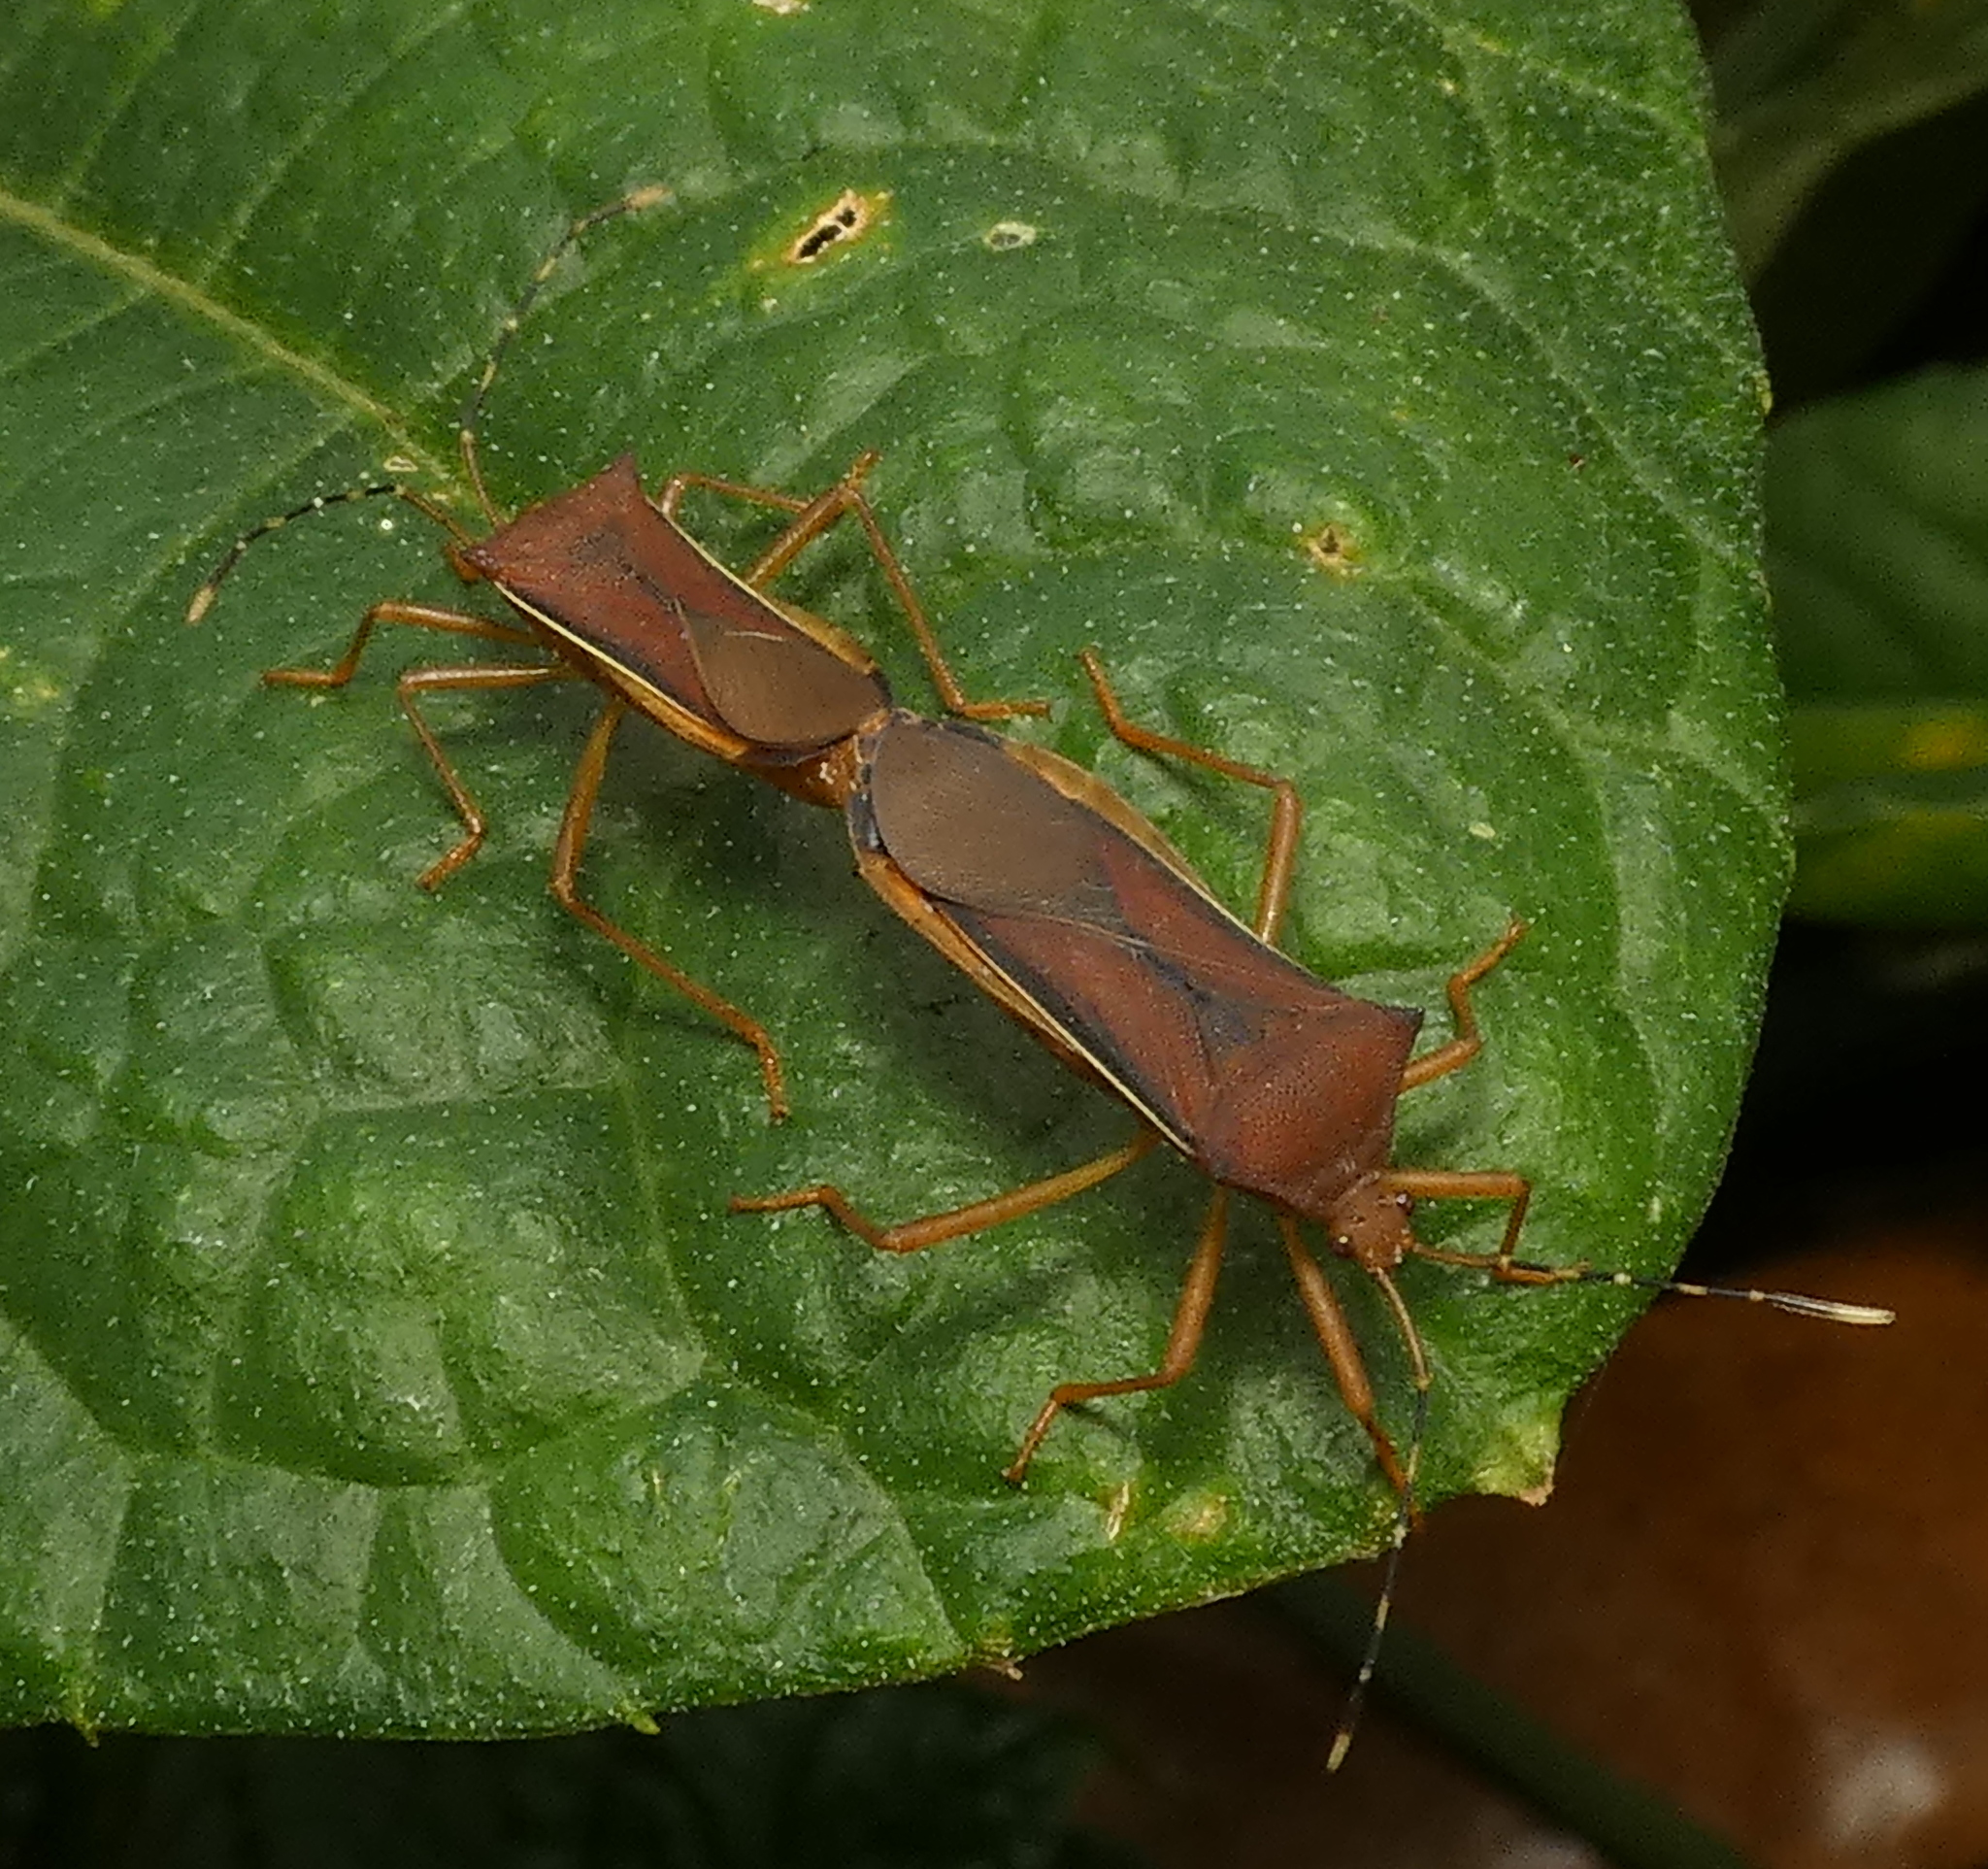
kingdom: Animalia
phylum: Arthropoda
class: Insecta
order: Hemiptera
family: Coreidae
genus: Anasa
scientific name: Anasa varicornis
